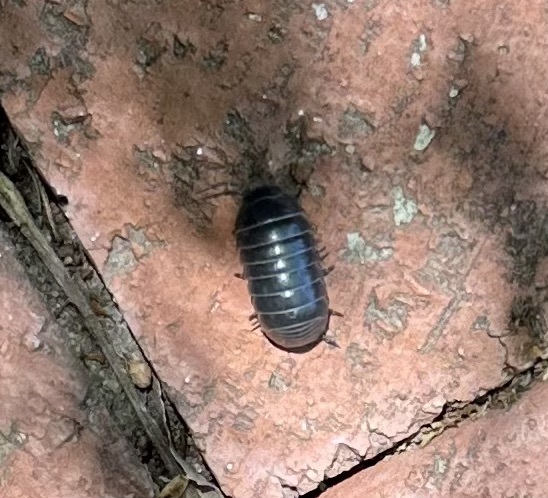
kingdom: Animalia
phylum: Arthropoda
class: Malacostraca
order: Isopoda
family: Armadillidiidae
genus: Armadillidium
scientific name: Armadillidium vulgare
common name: Common pill woodlouse
